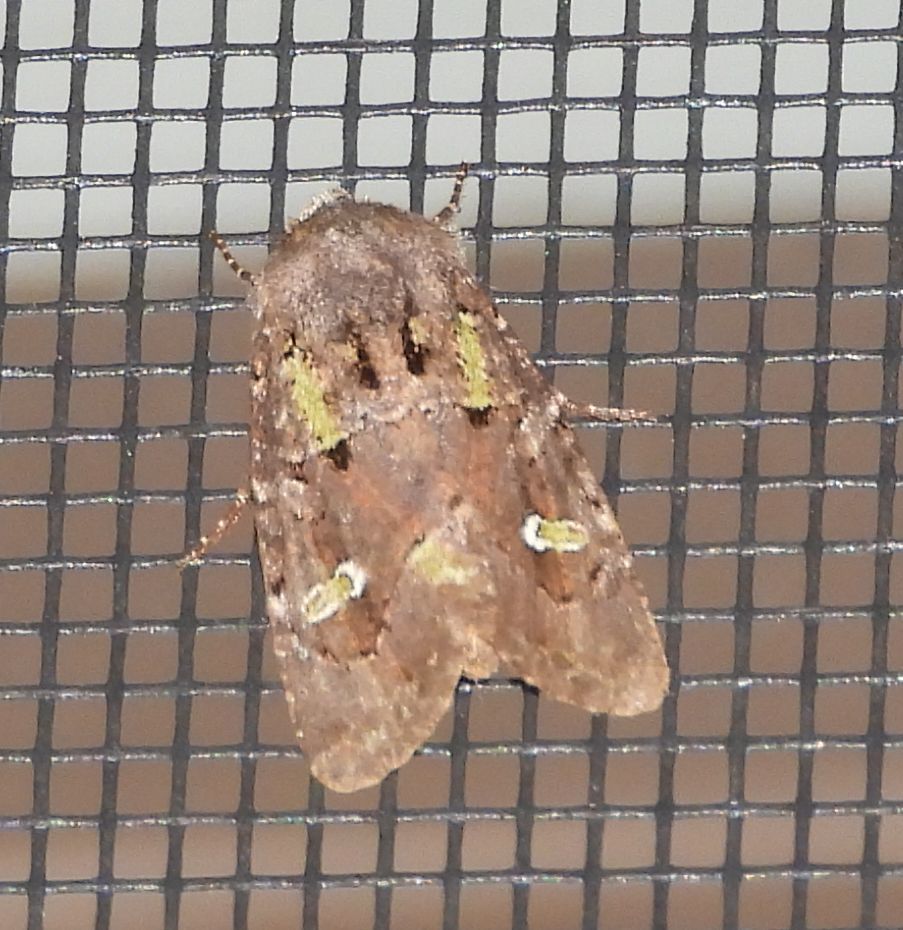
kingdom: Animalia
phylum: Arthropoda
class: Insecta
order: Lepidoptera
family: Noctuidae
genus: Lacinipolia
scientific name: Lacinipolia renigera
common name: Kidney-spotted minor
